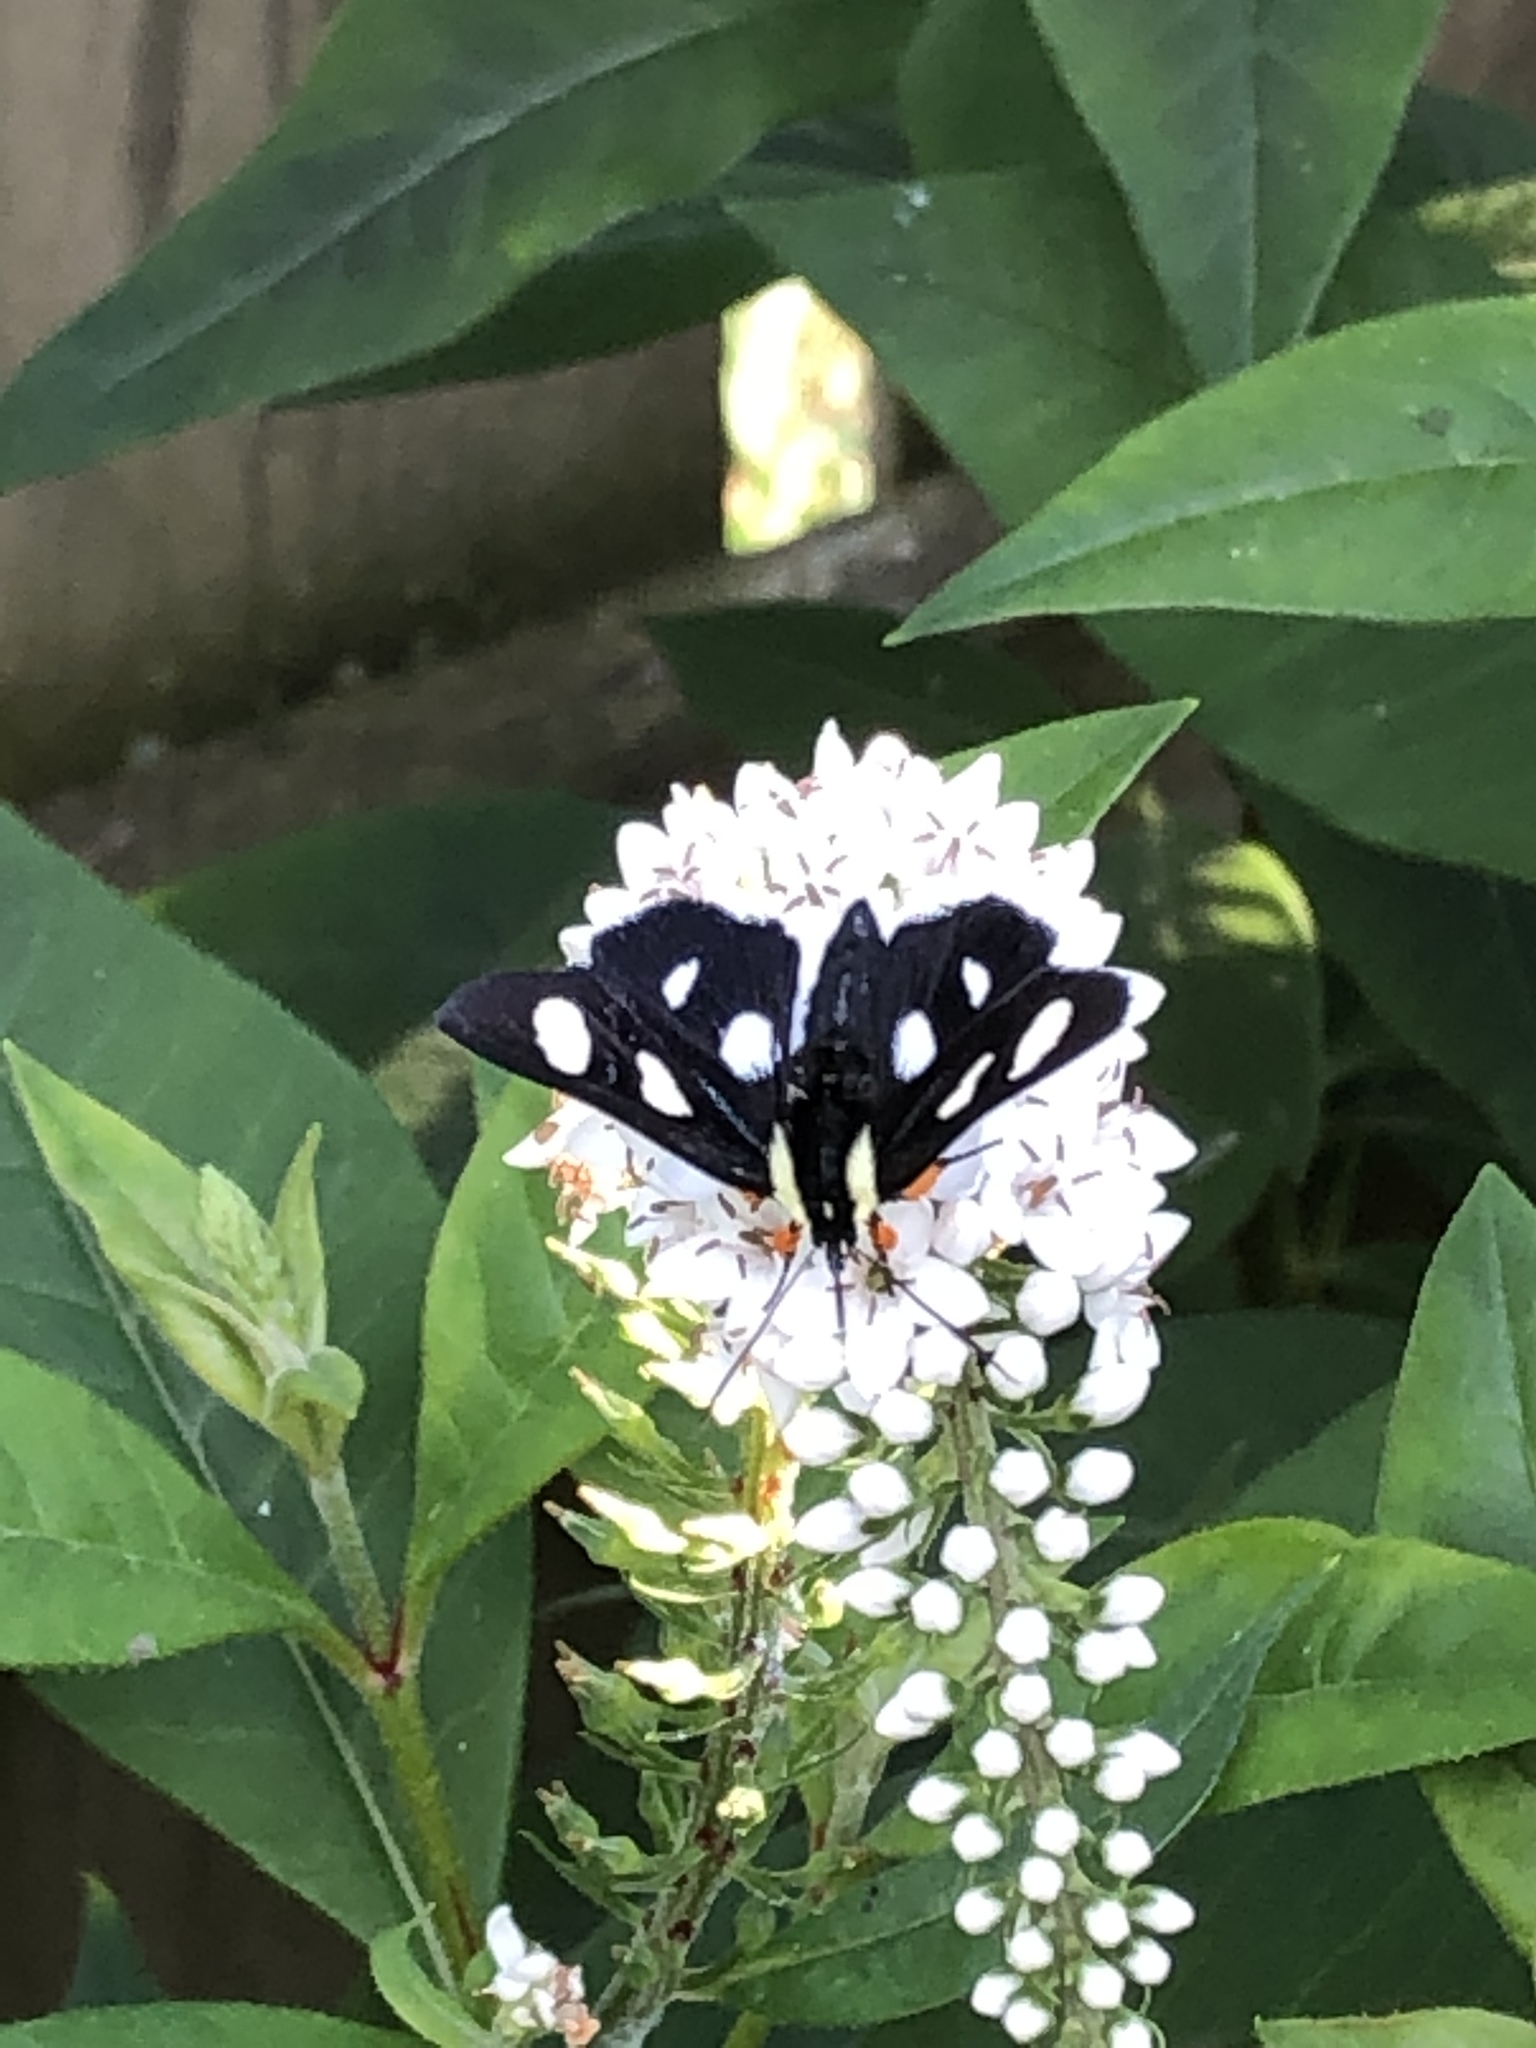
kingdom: Animalia
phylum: Arthropoda
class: Insecta
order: Lepidoptera
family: Noctuidae
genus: Alypia
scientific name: Alypia octomaculata
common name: Eight-spotted forester
